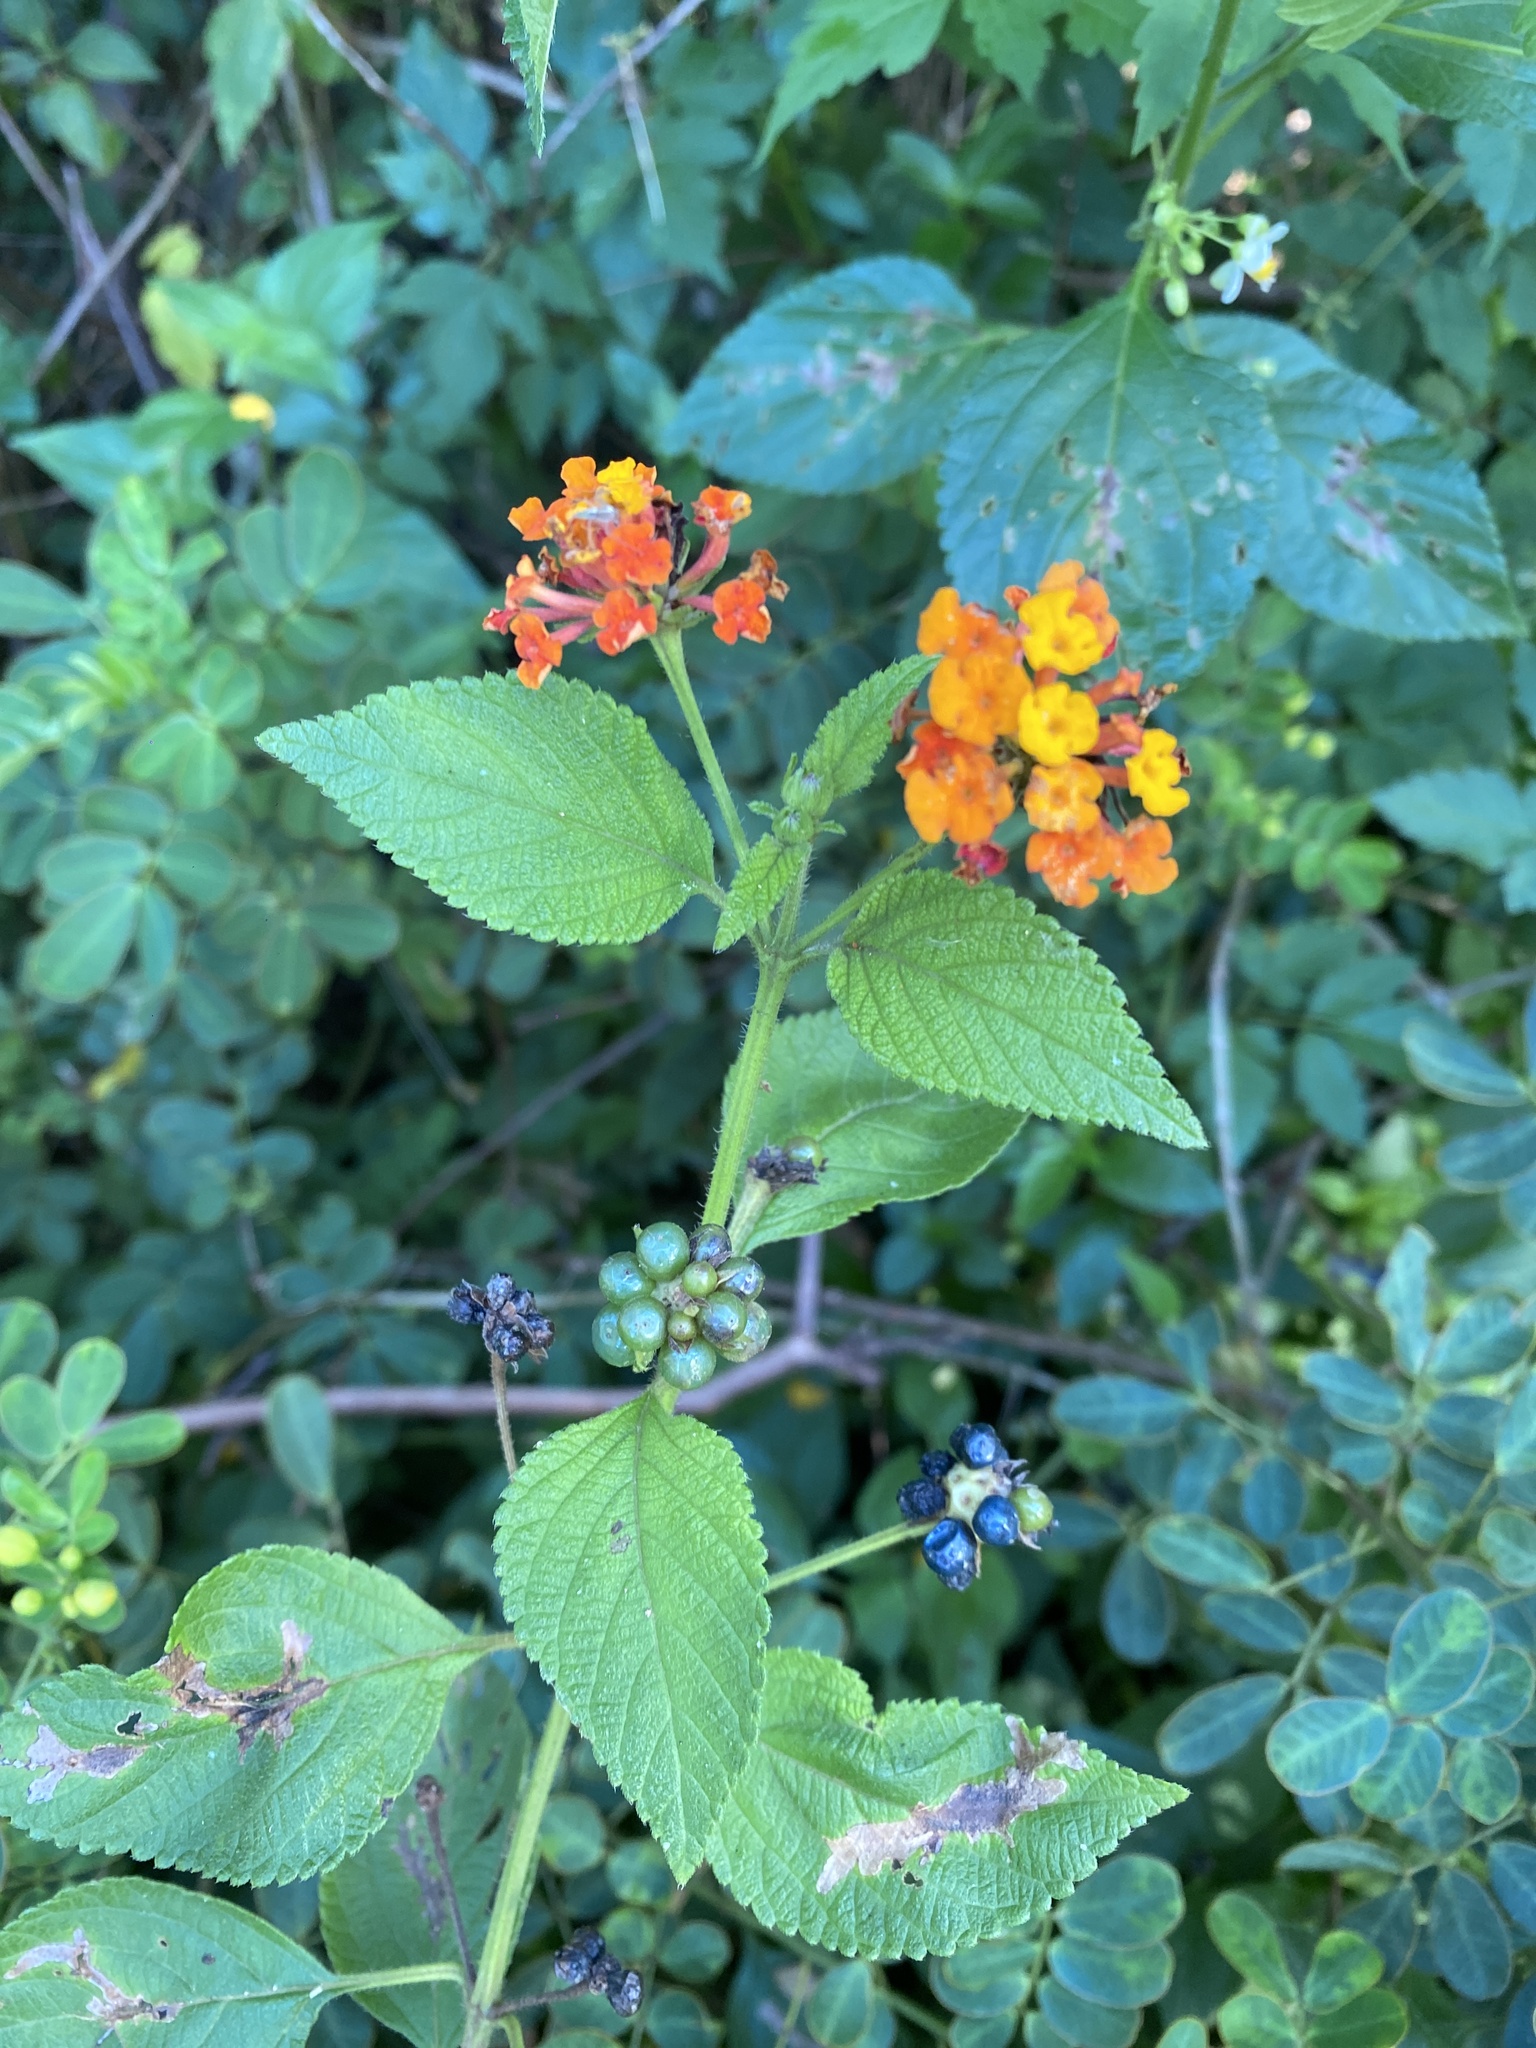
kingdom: Plantae
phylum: Tracheophyta
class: Magnoliopsida
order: Lamiales
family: Verbenaceae
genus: Lantana
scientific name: Lantana camara
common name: Lantana
